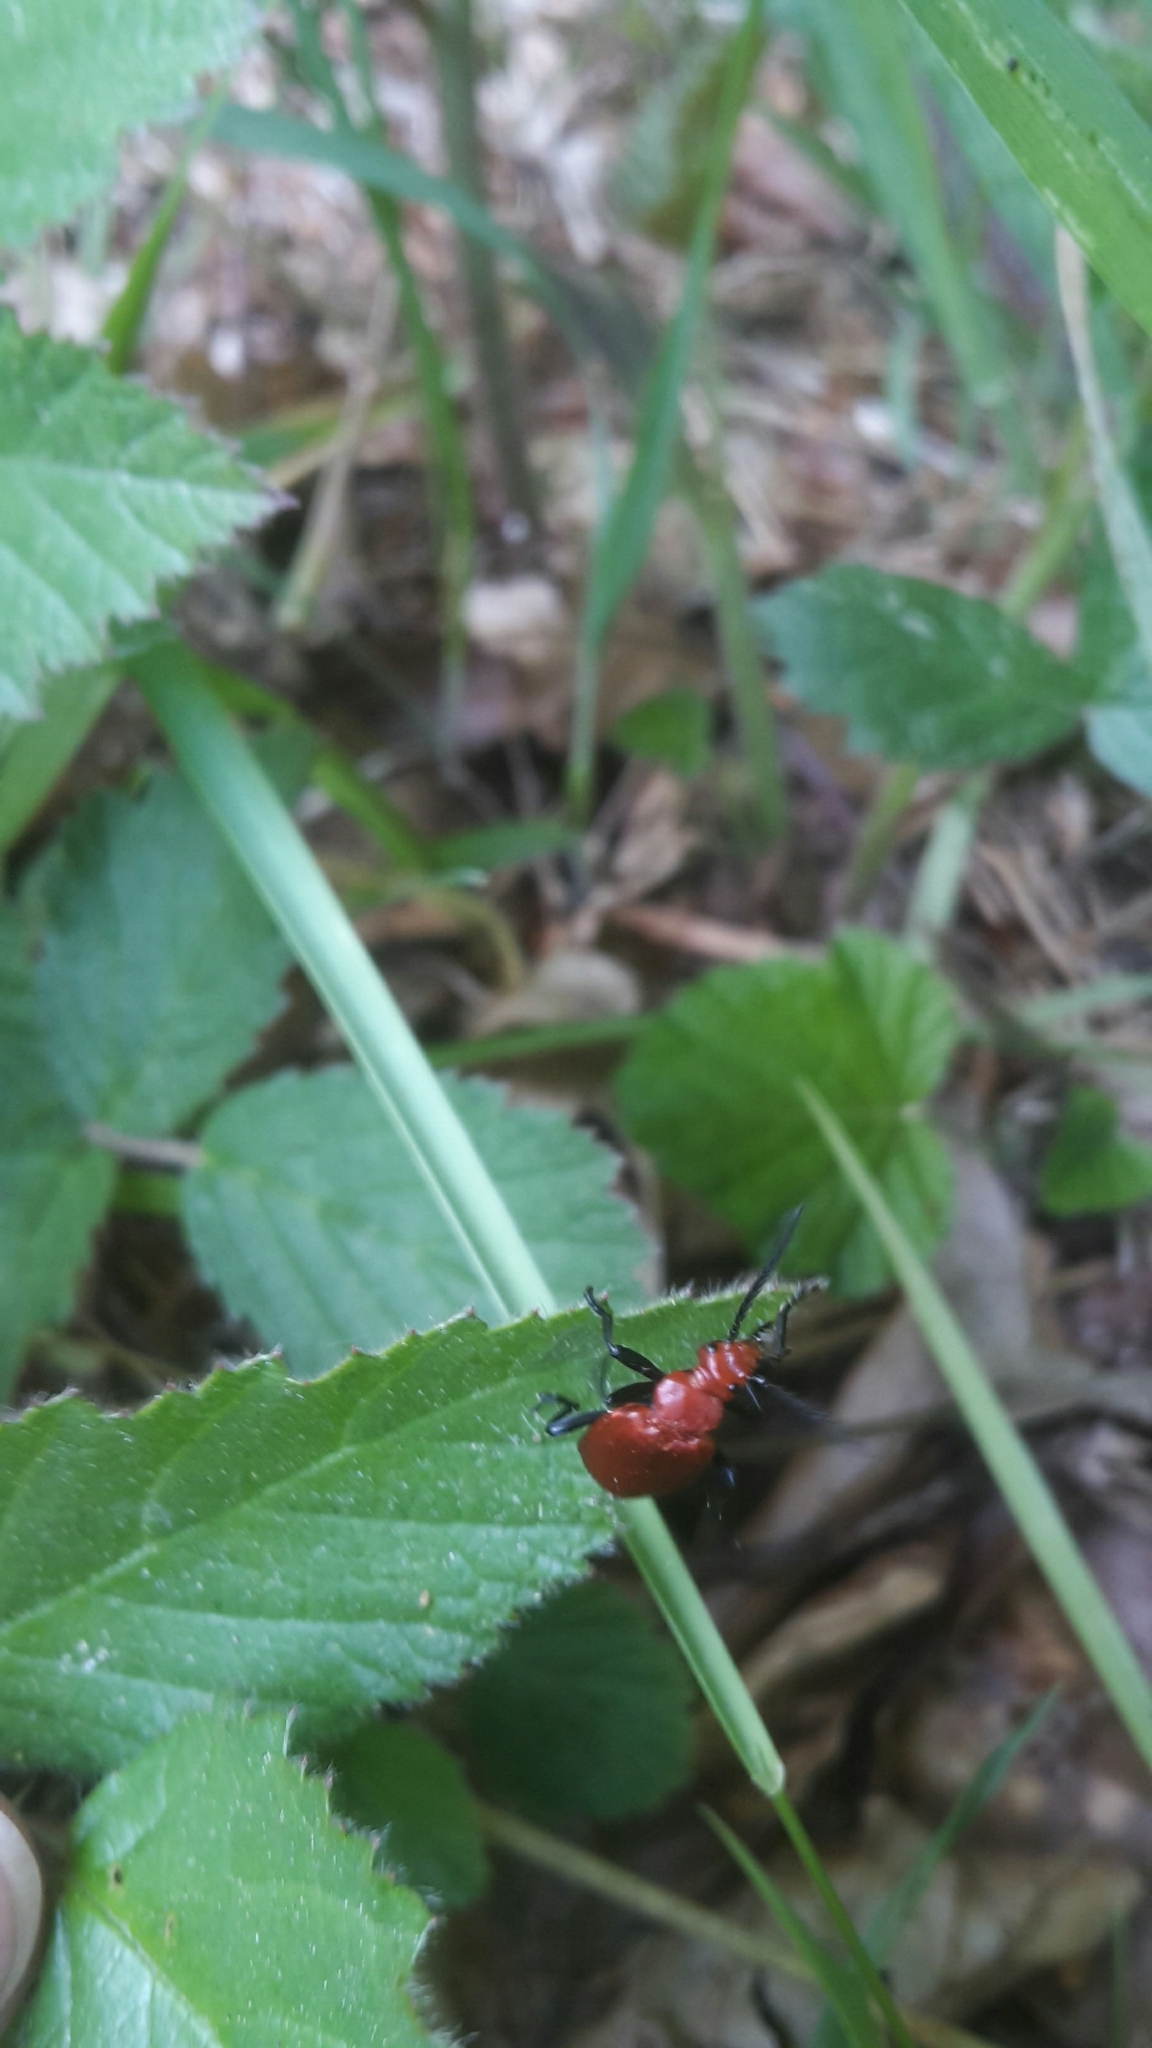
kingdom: Animalia
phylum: Arthropoda
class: Insecta
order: Coleoptera
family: Pyrochroidae
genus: Pyrochroa
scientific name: Pyrochroa serraticornis
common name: Red-headed cardinal beetle
